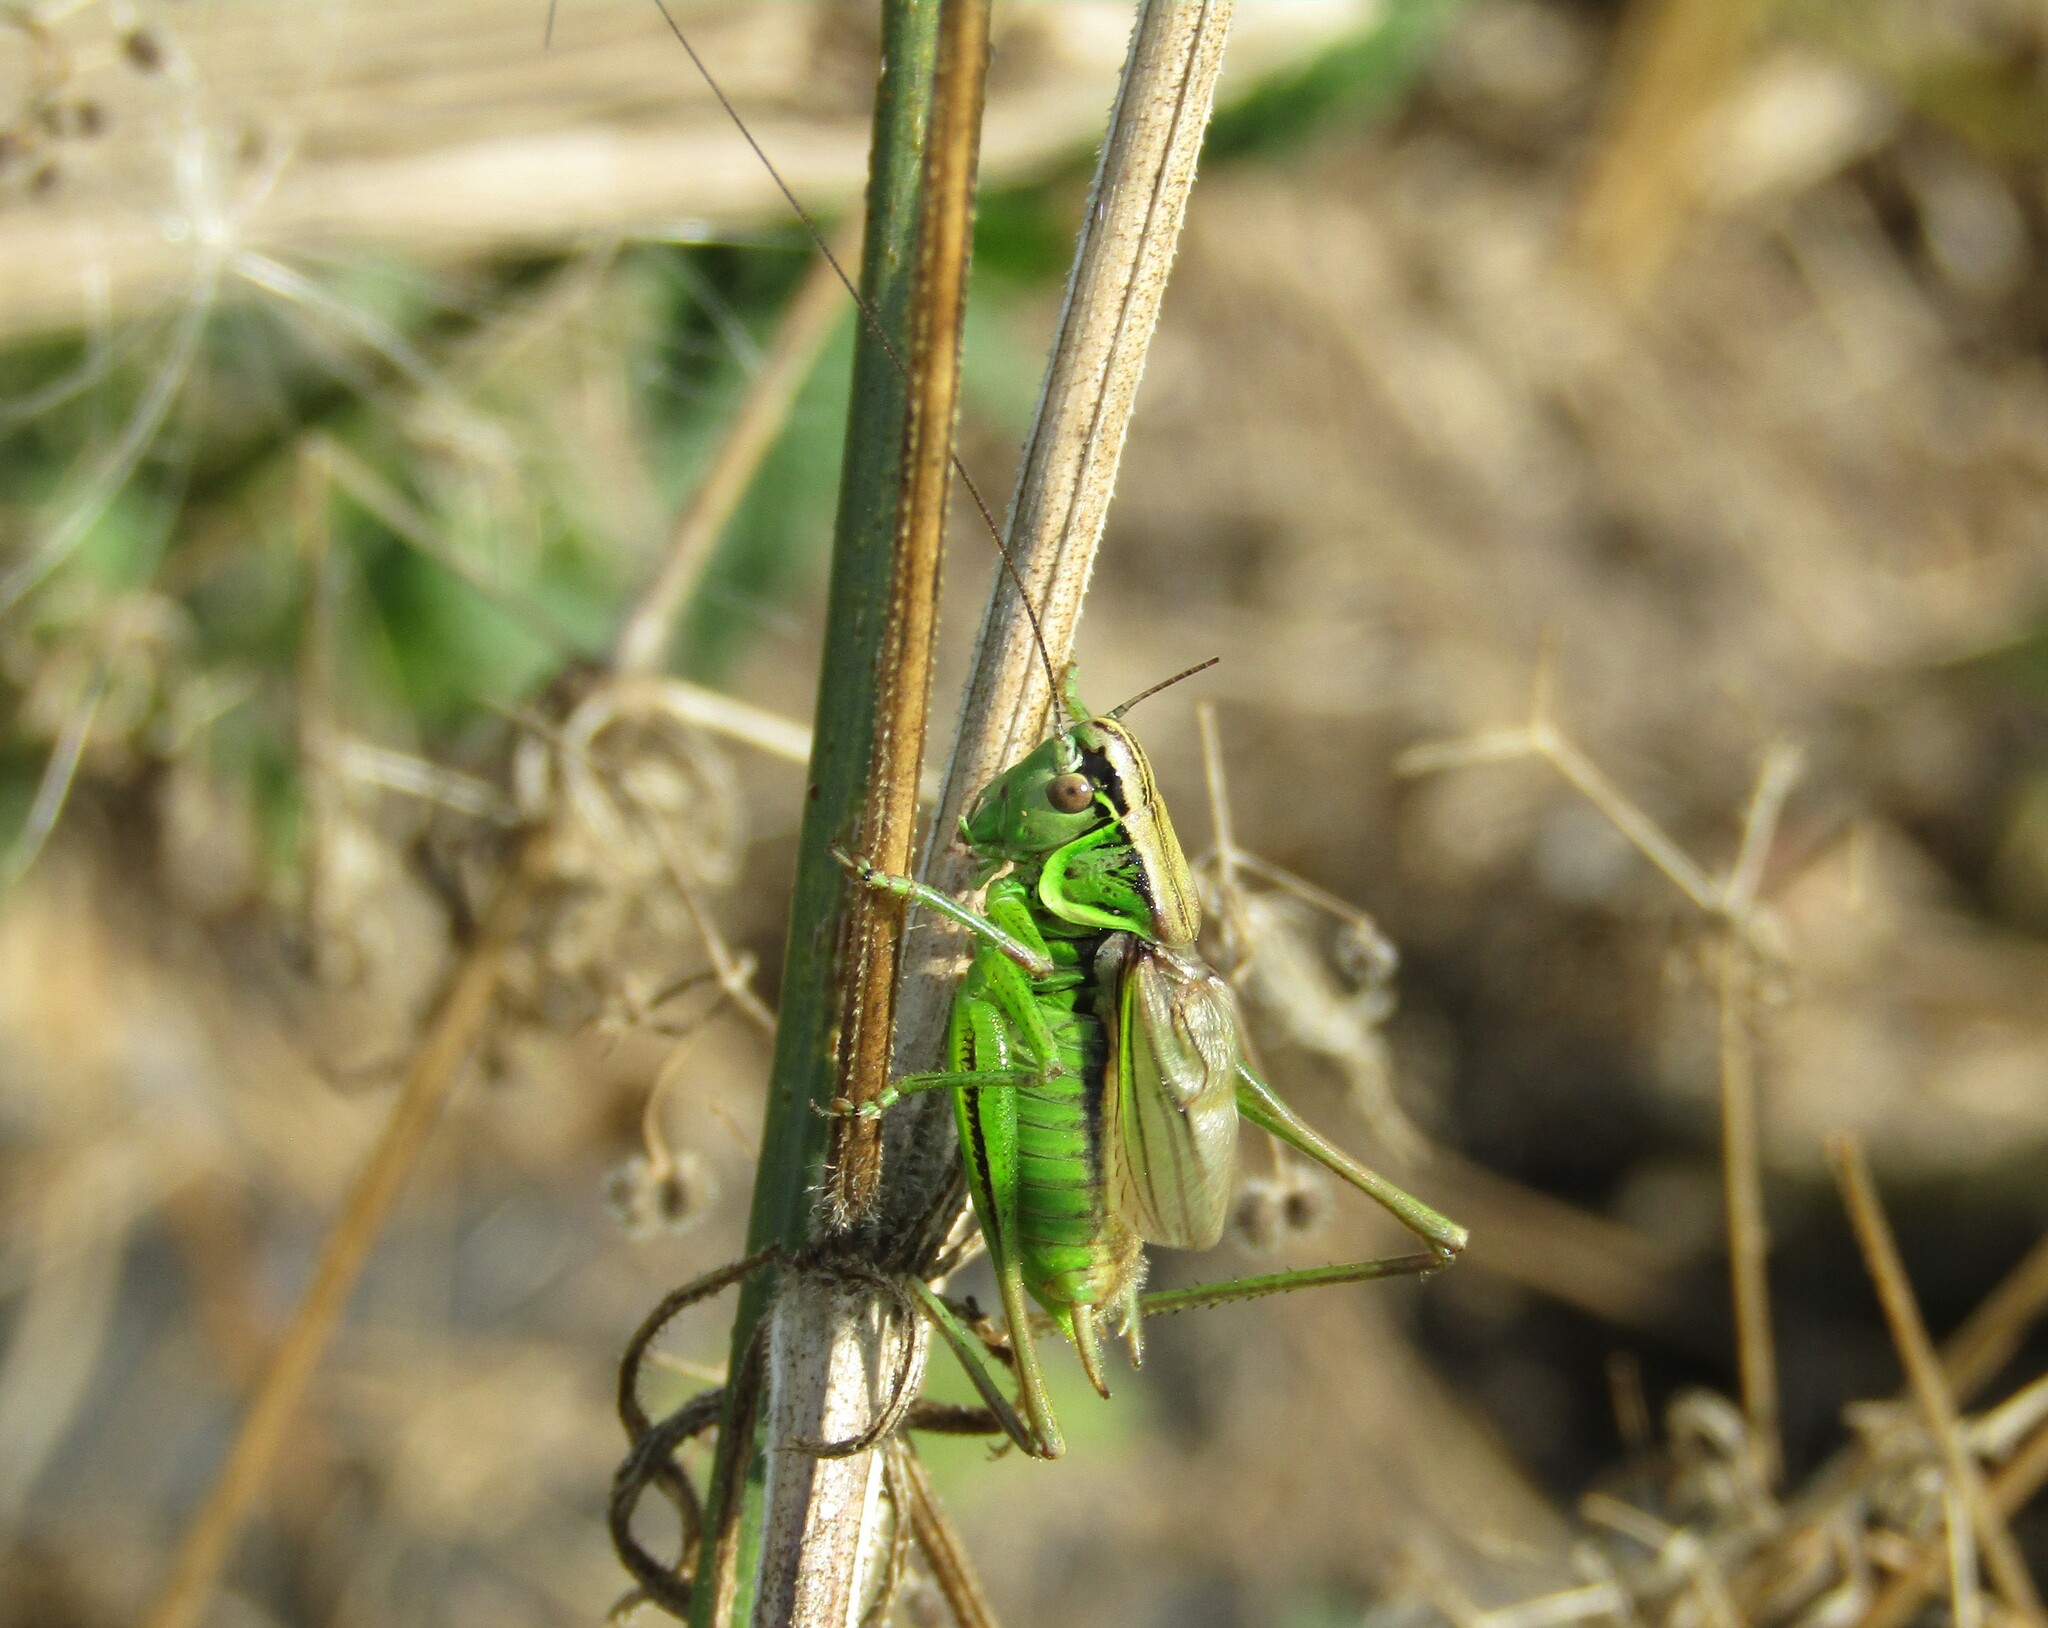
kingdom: Animalia
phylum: Arthropoda
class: Insecta
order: Orthoptera
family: Tettigoniidae
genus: Roeseliana
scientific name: Roeseliana roeselii
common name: Roesel's bush cricket
